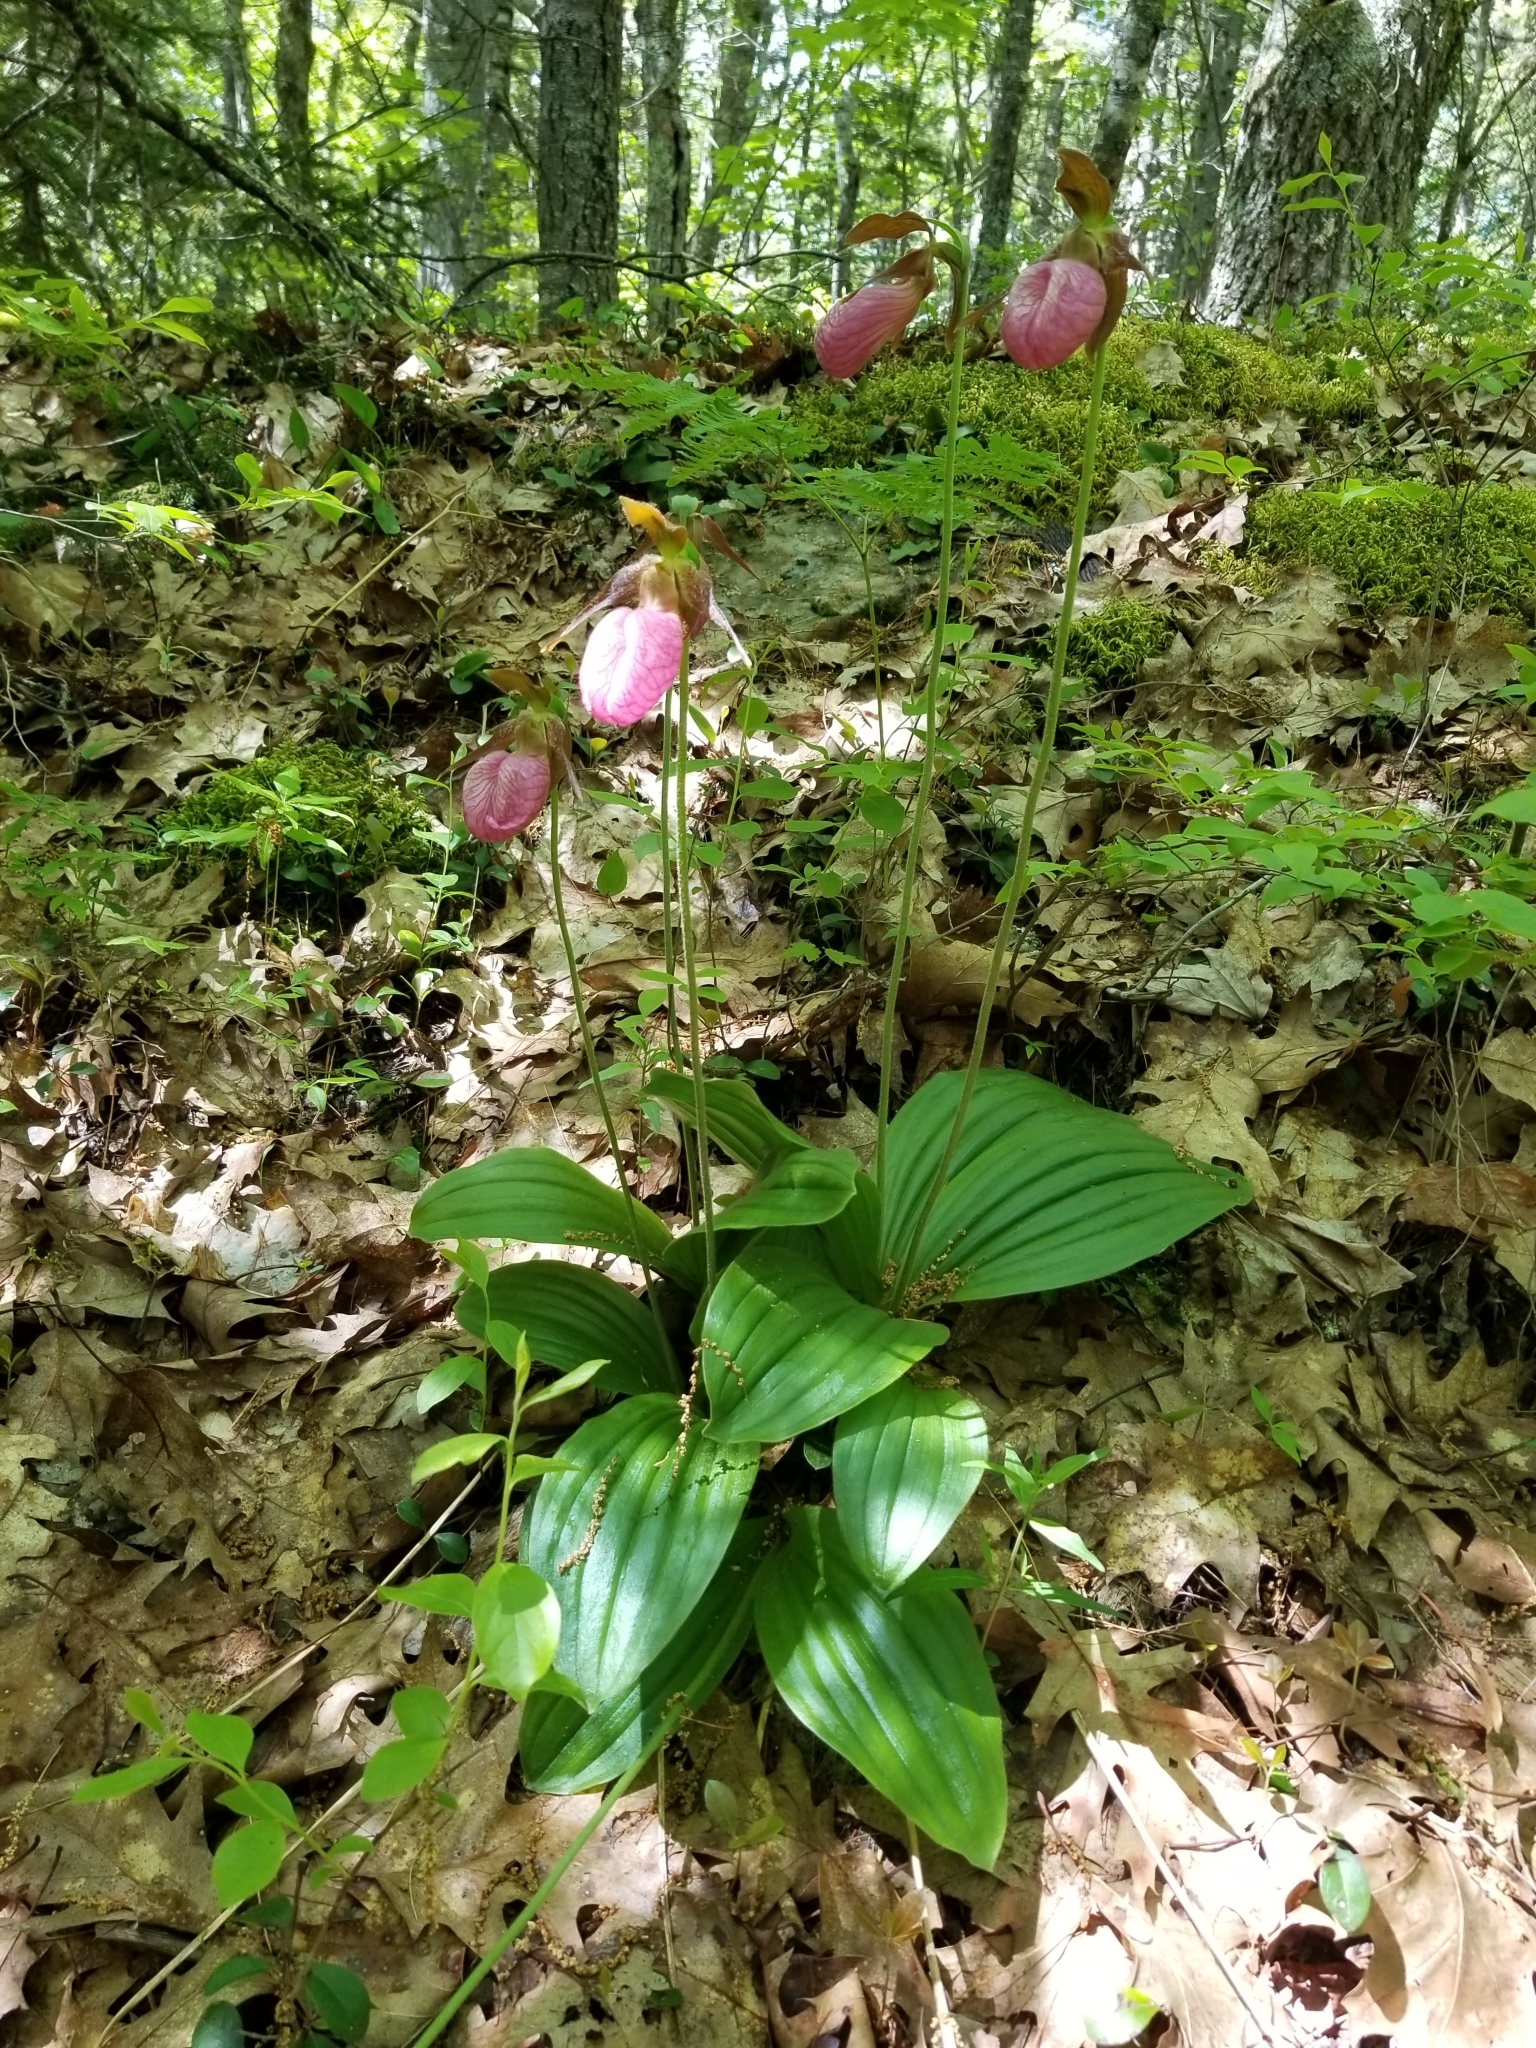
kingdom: Plantae
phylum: Tracheophyta
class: Liliopsida
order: Asparagales
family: Orchidaceae
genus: Cypripedium
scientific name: Cypripedium acaule
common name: Pink lady's-slipper
